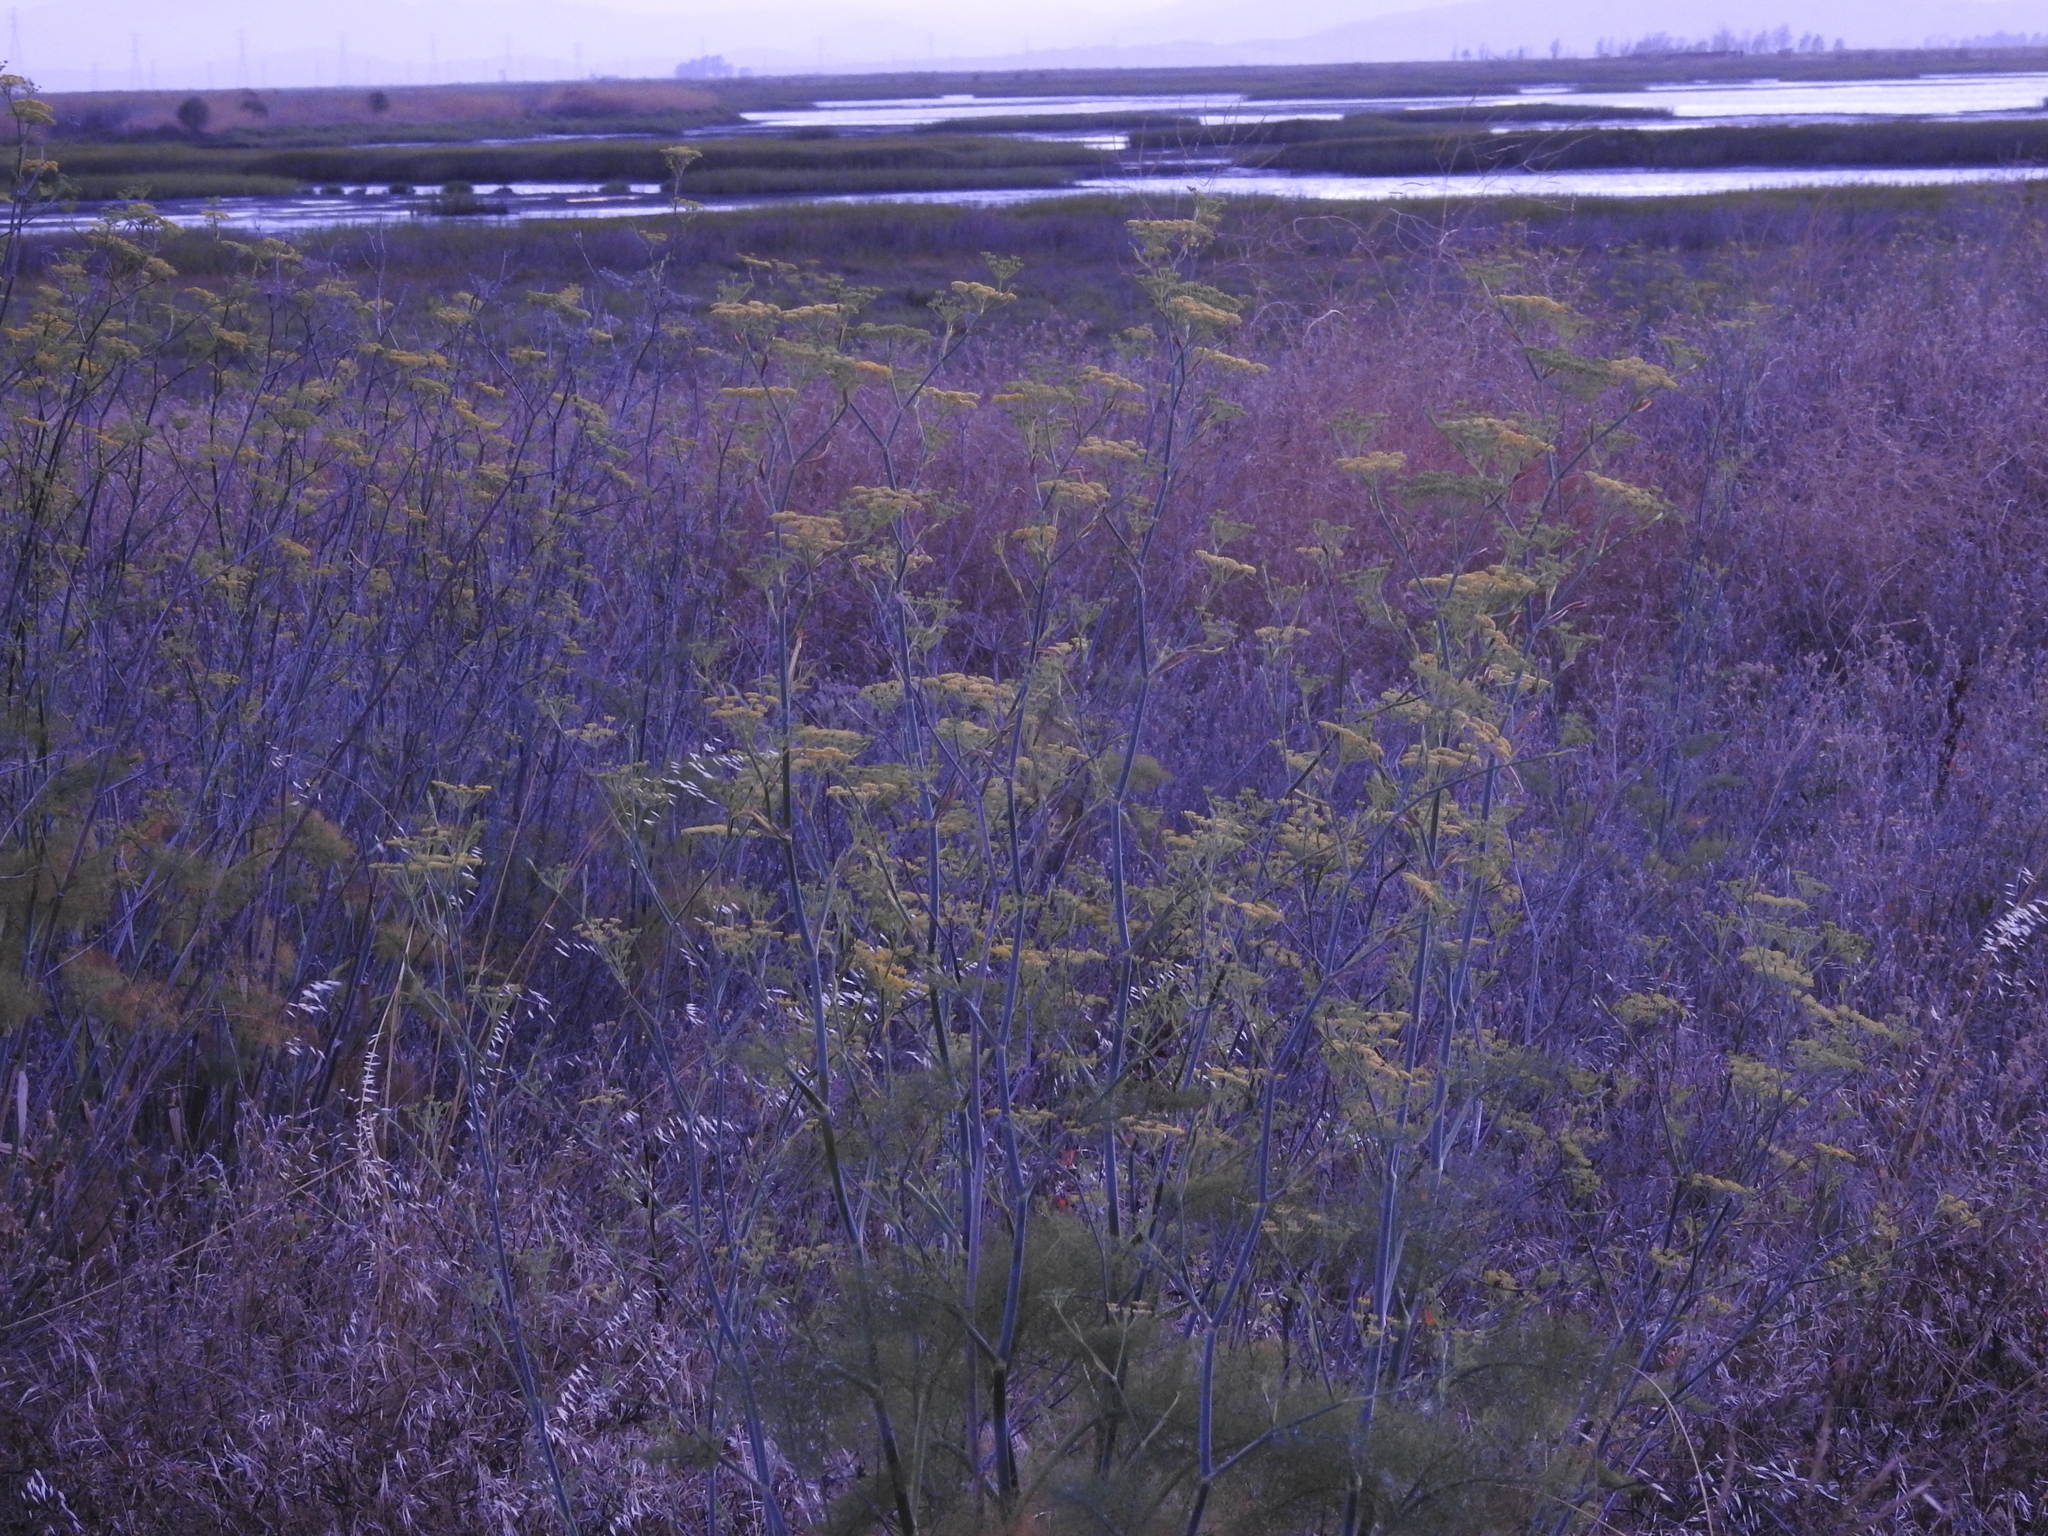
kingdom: Plantae
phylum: Tracheophyta
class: Magnoliopsida
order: Apiales
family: Apiaceae
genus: Foeniculum
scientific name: Foeniculum vulgare
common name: Fennel
